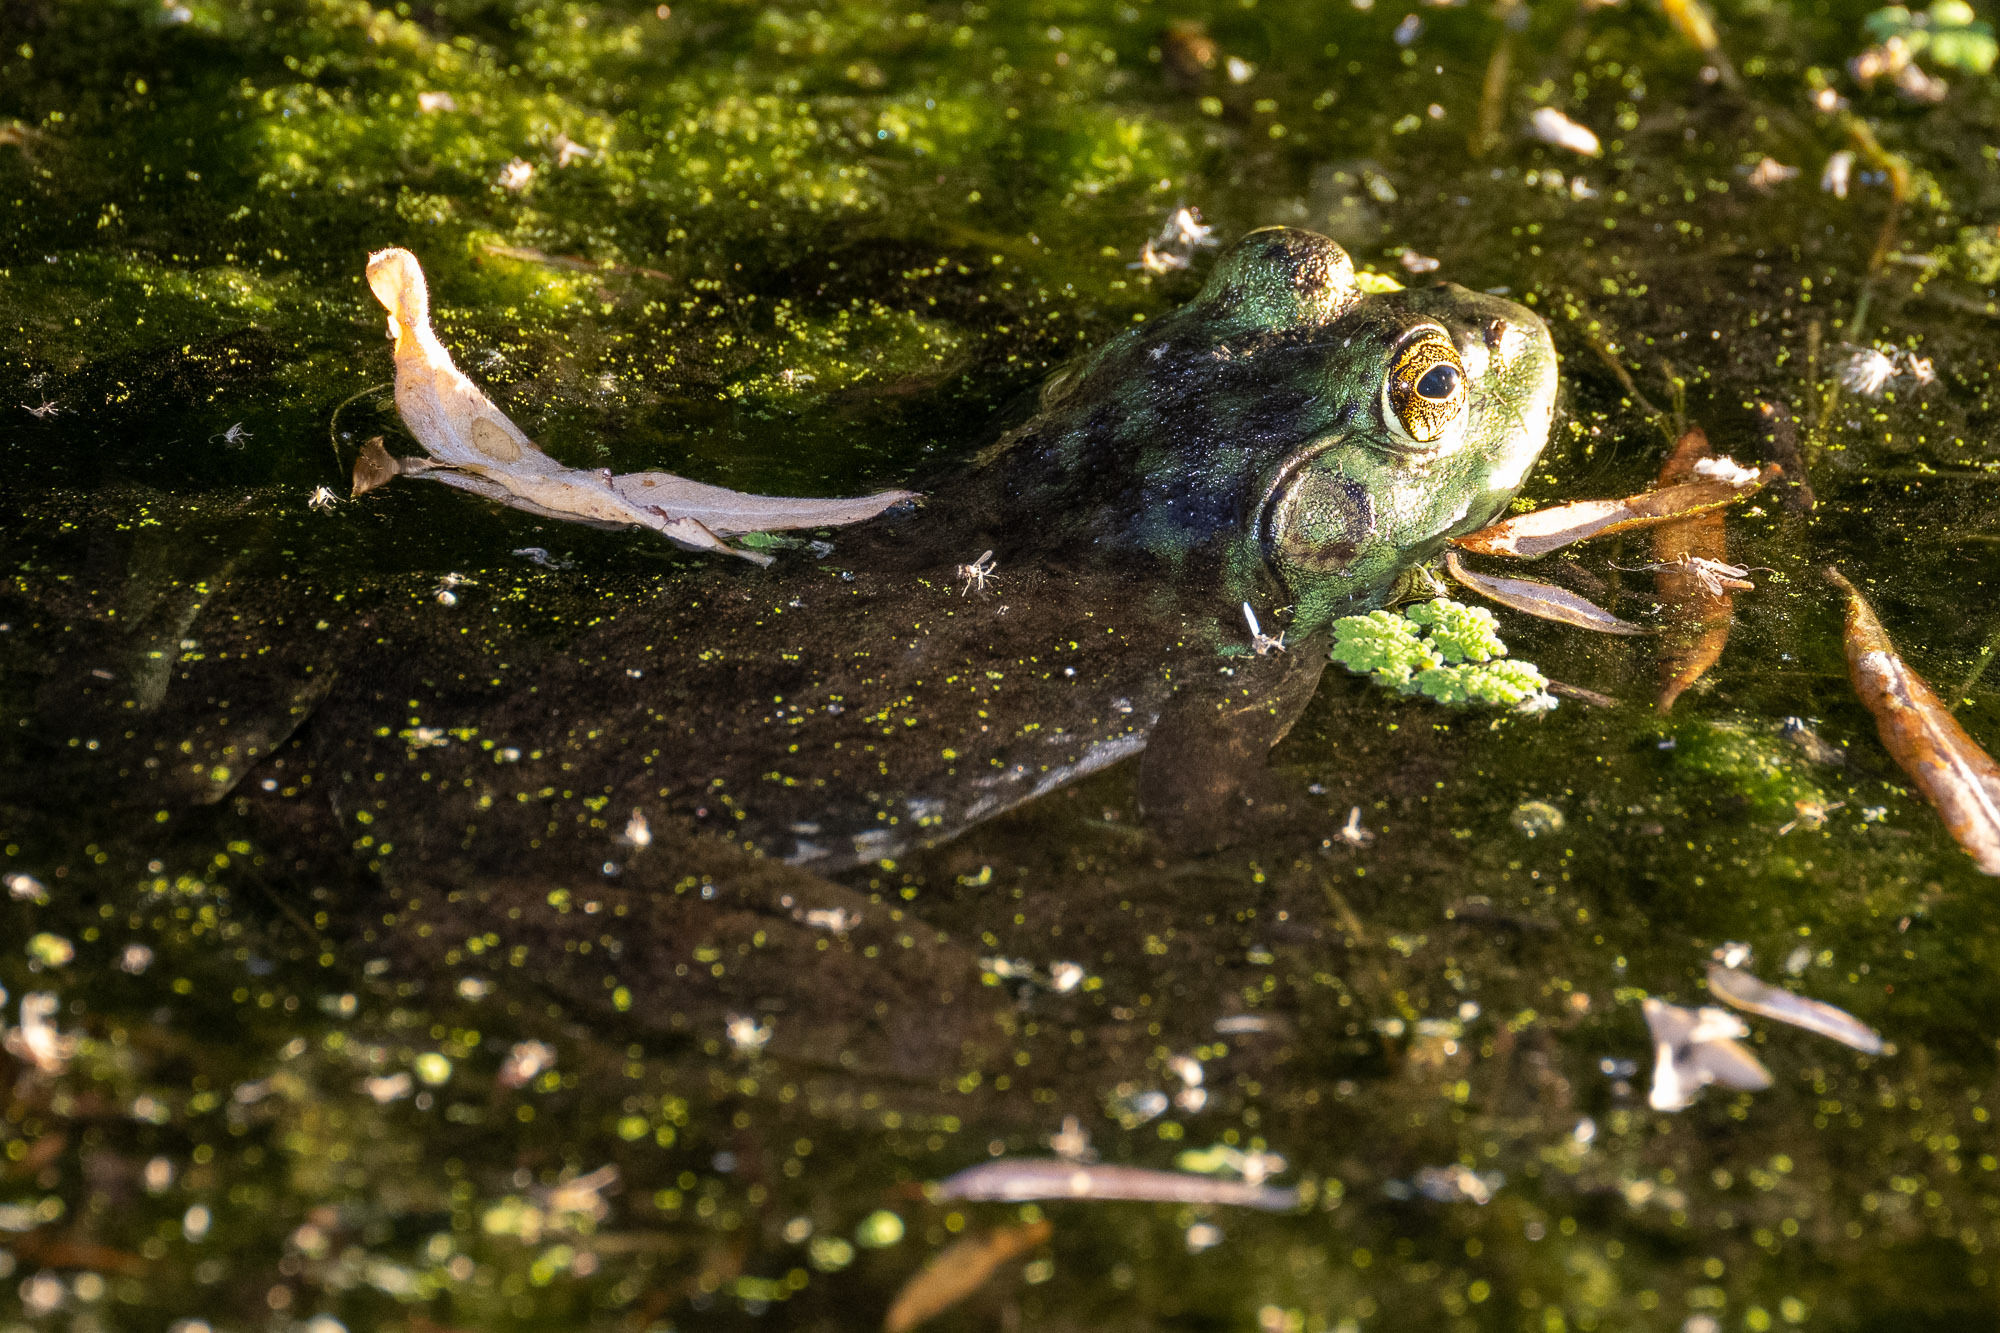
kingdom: Animalia
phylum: Chordata
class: Amphibia
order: Anura
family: Ranidae
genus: Lithobates
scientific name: Lithobates catesbeianus
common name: American bullfrog
